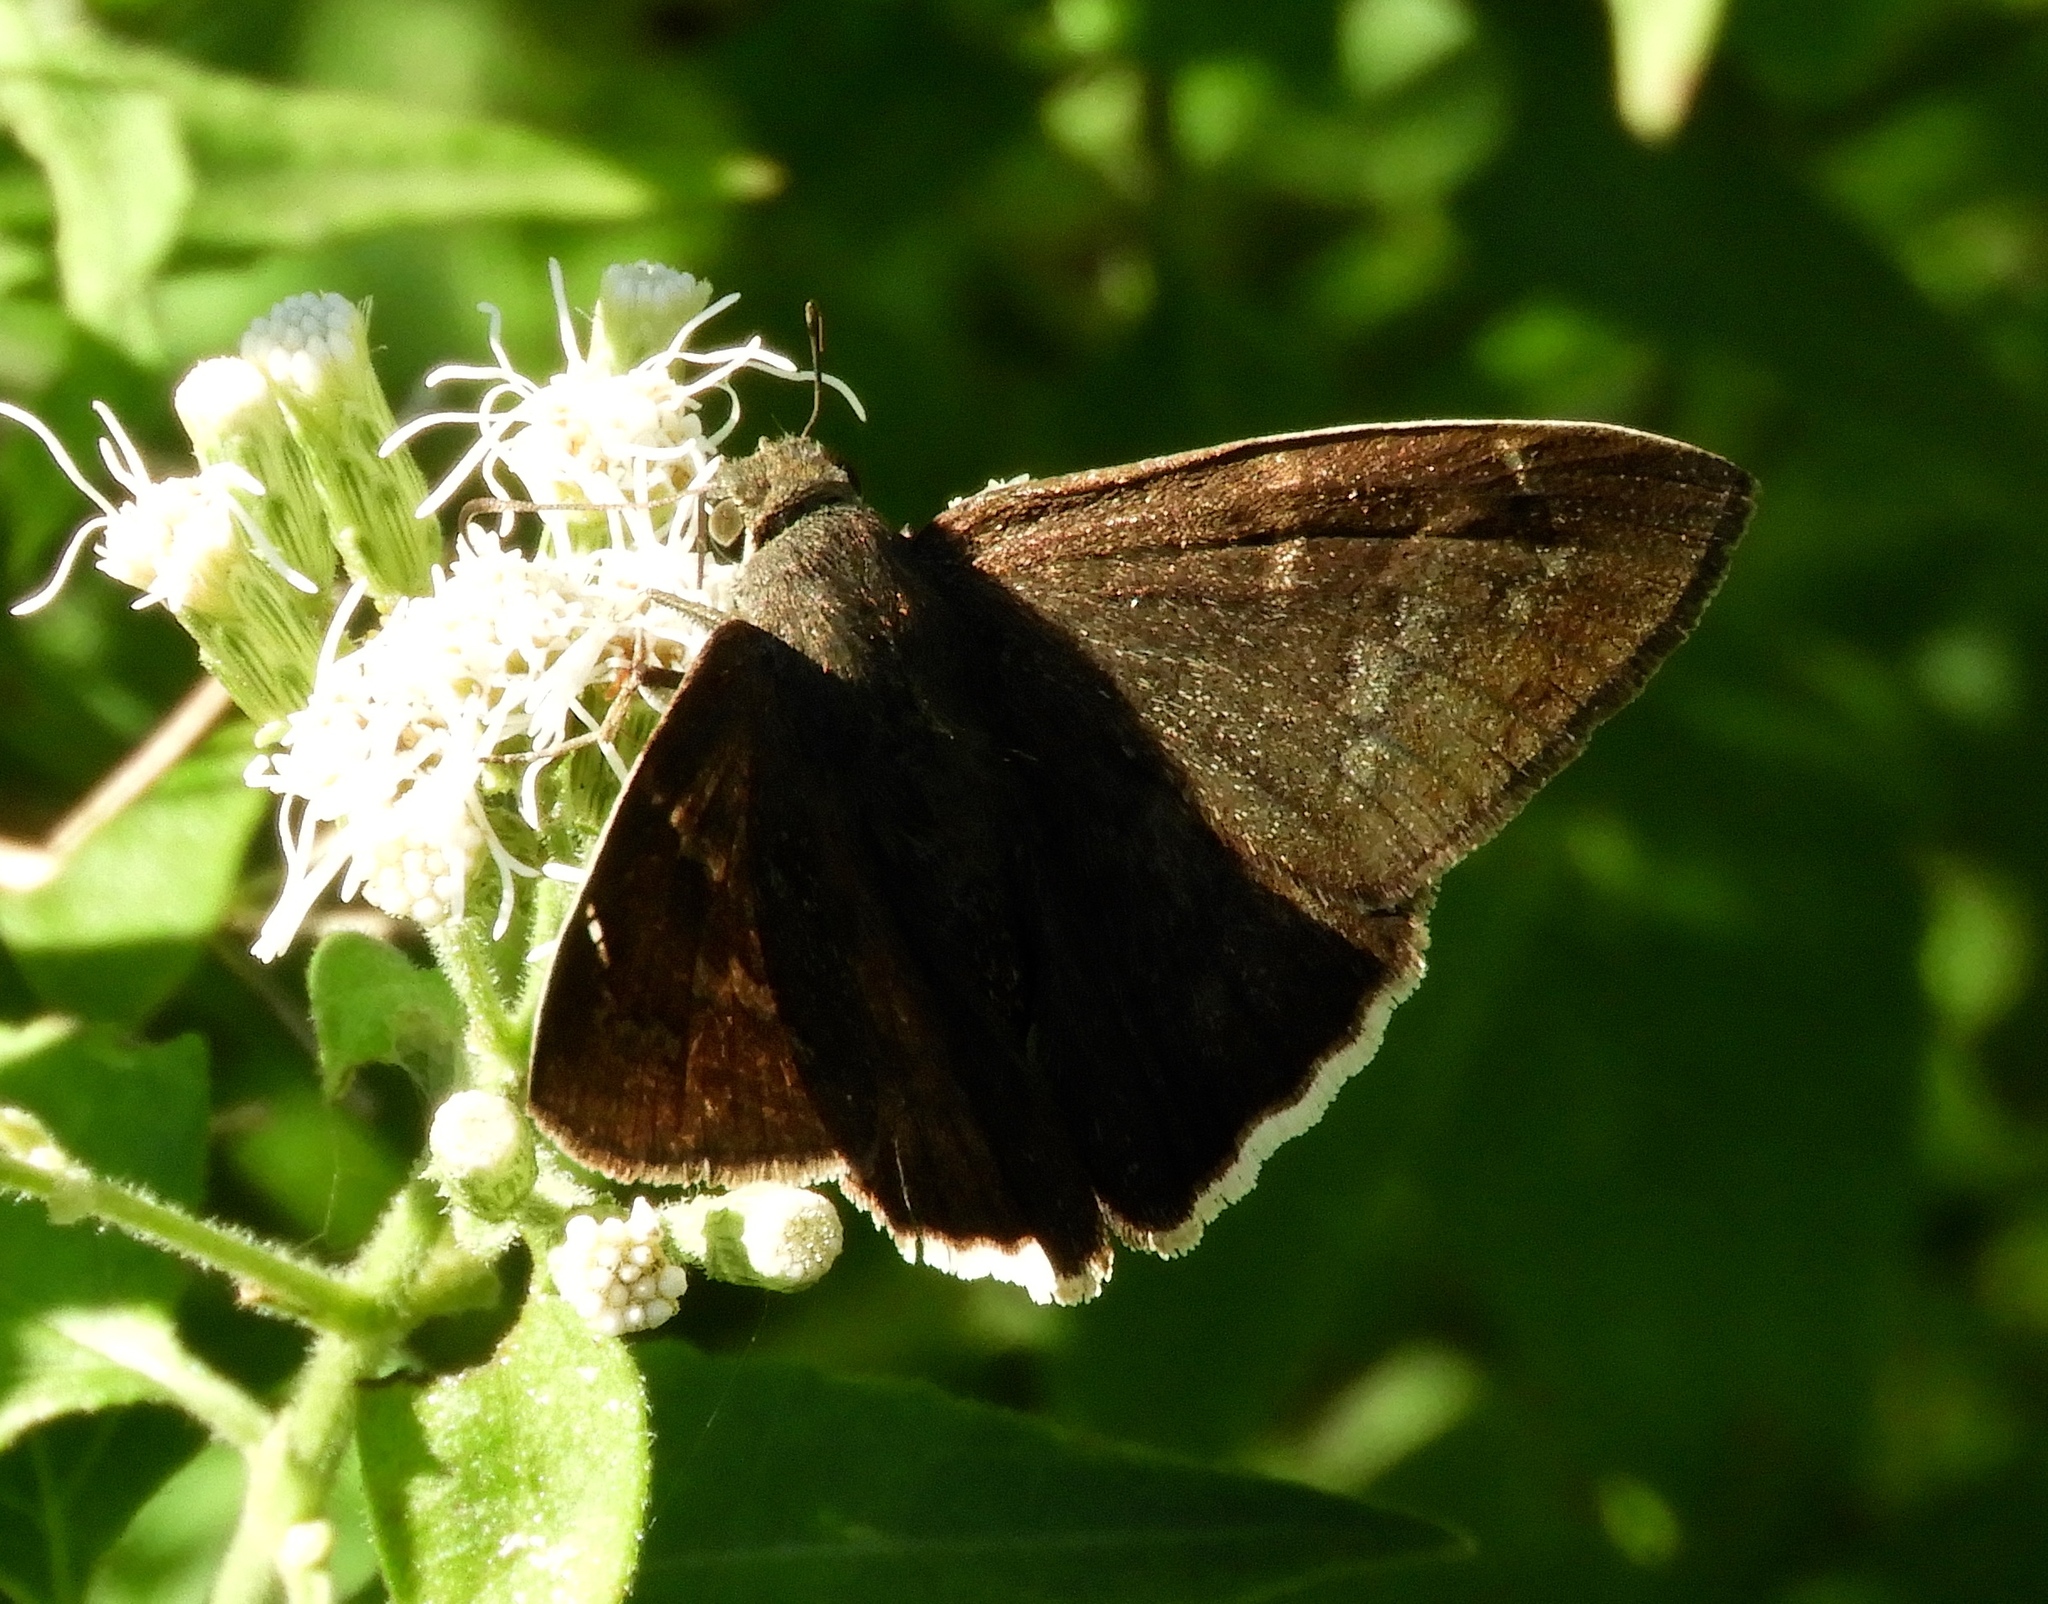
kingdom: Animalia
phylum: Arthropoda
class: Insecta
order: Lepidoptera
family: Hesperiidae
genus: Achalarus
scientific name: Achalarus Murgaria albociliatus
